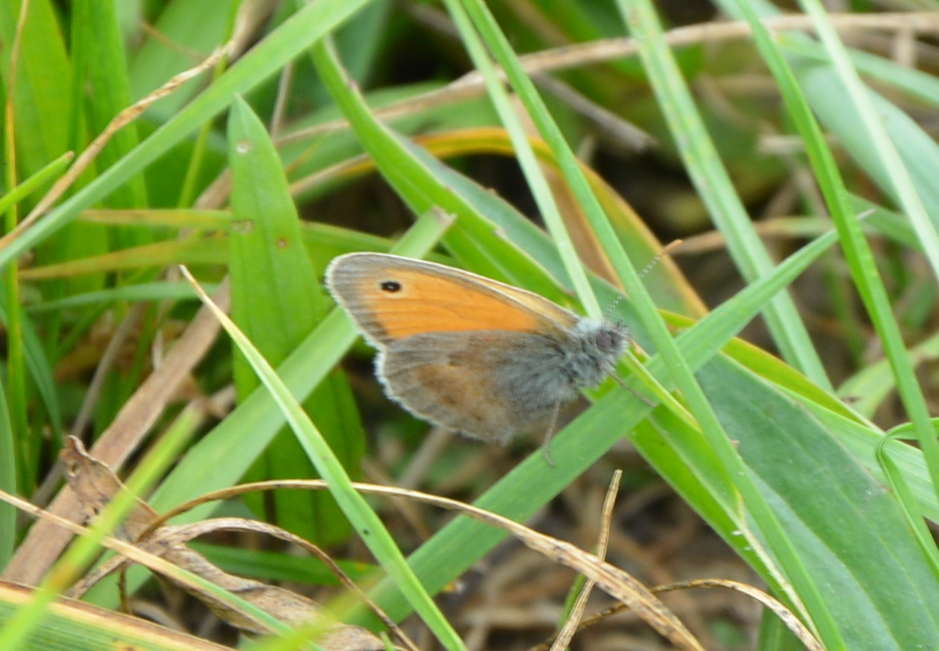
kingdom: Animalia
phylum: Arthropoda
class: Insecta
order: Lepidoptera
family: Nymphalidae
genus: Coenonympha
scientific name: Coenonympha pamphilus
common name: Small heath
